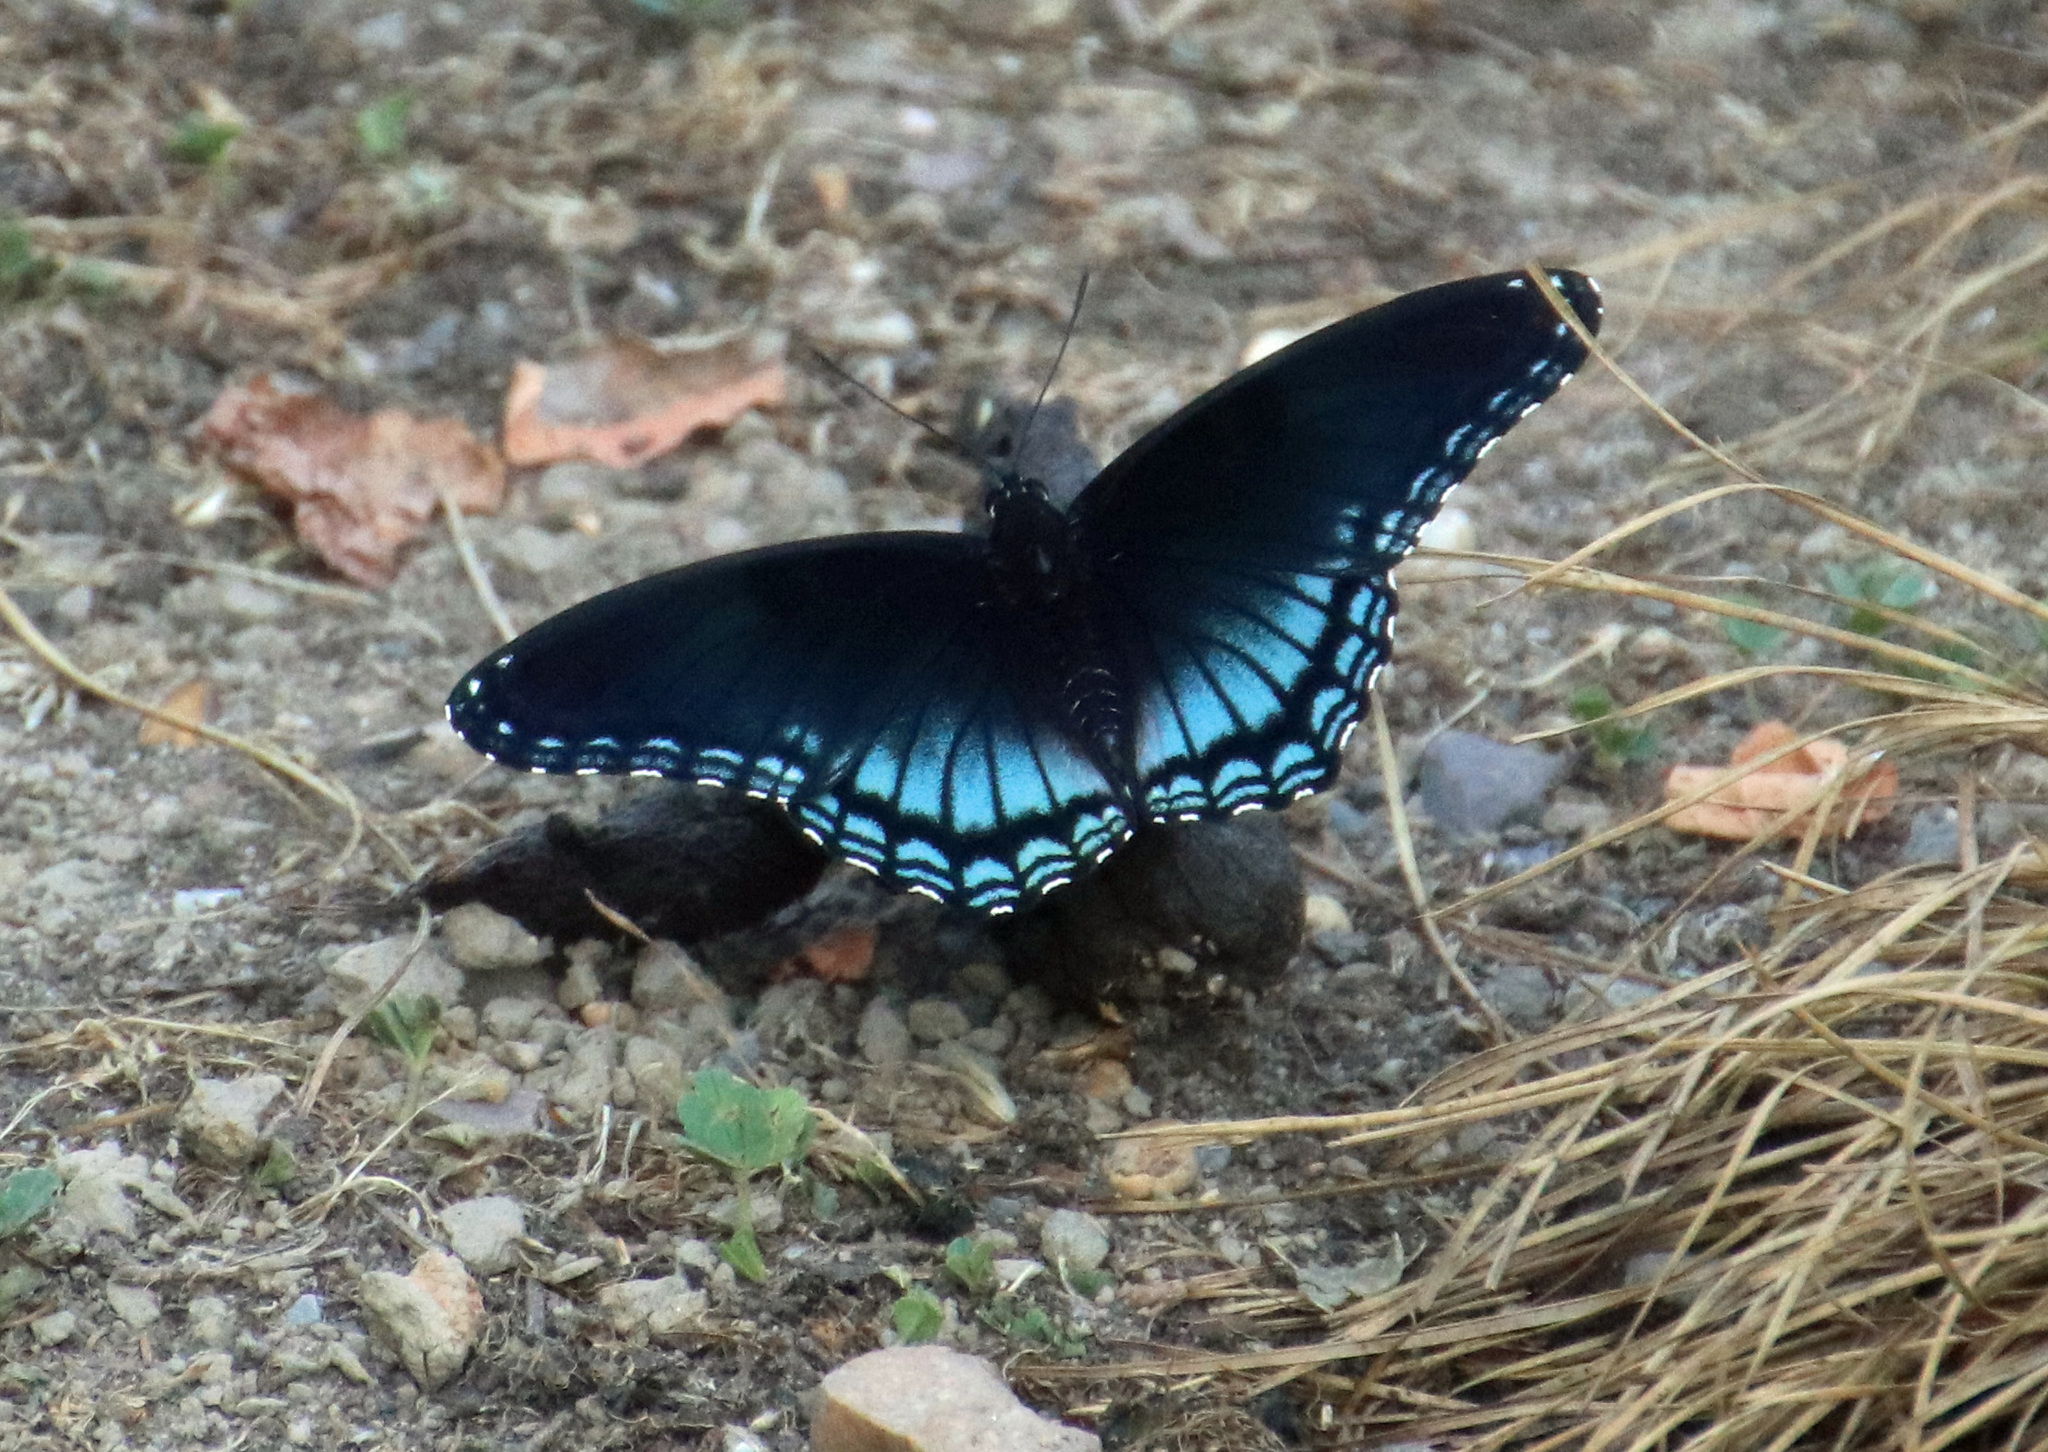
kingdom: Animalia
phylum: Arthropoda
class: Insecta
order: Lepidoptera
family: Nymphalidae
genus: Limenitis
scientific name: Limenitis arthemis
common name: Red-spotted admiral
